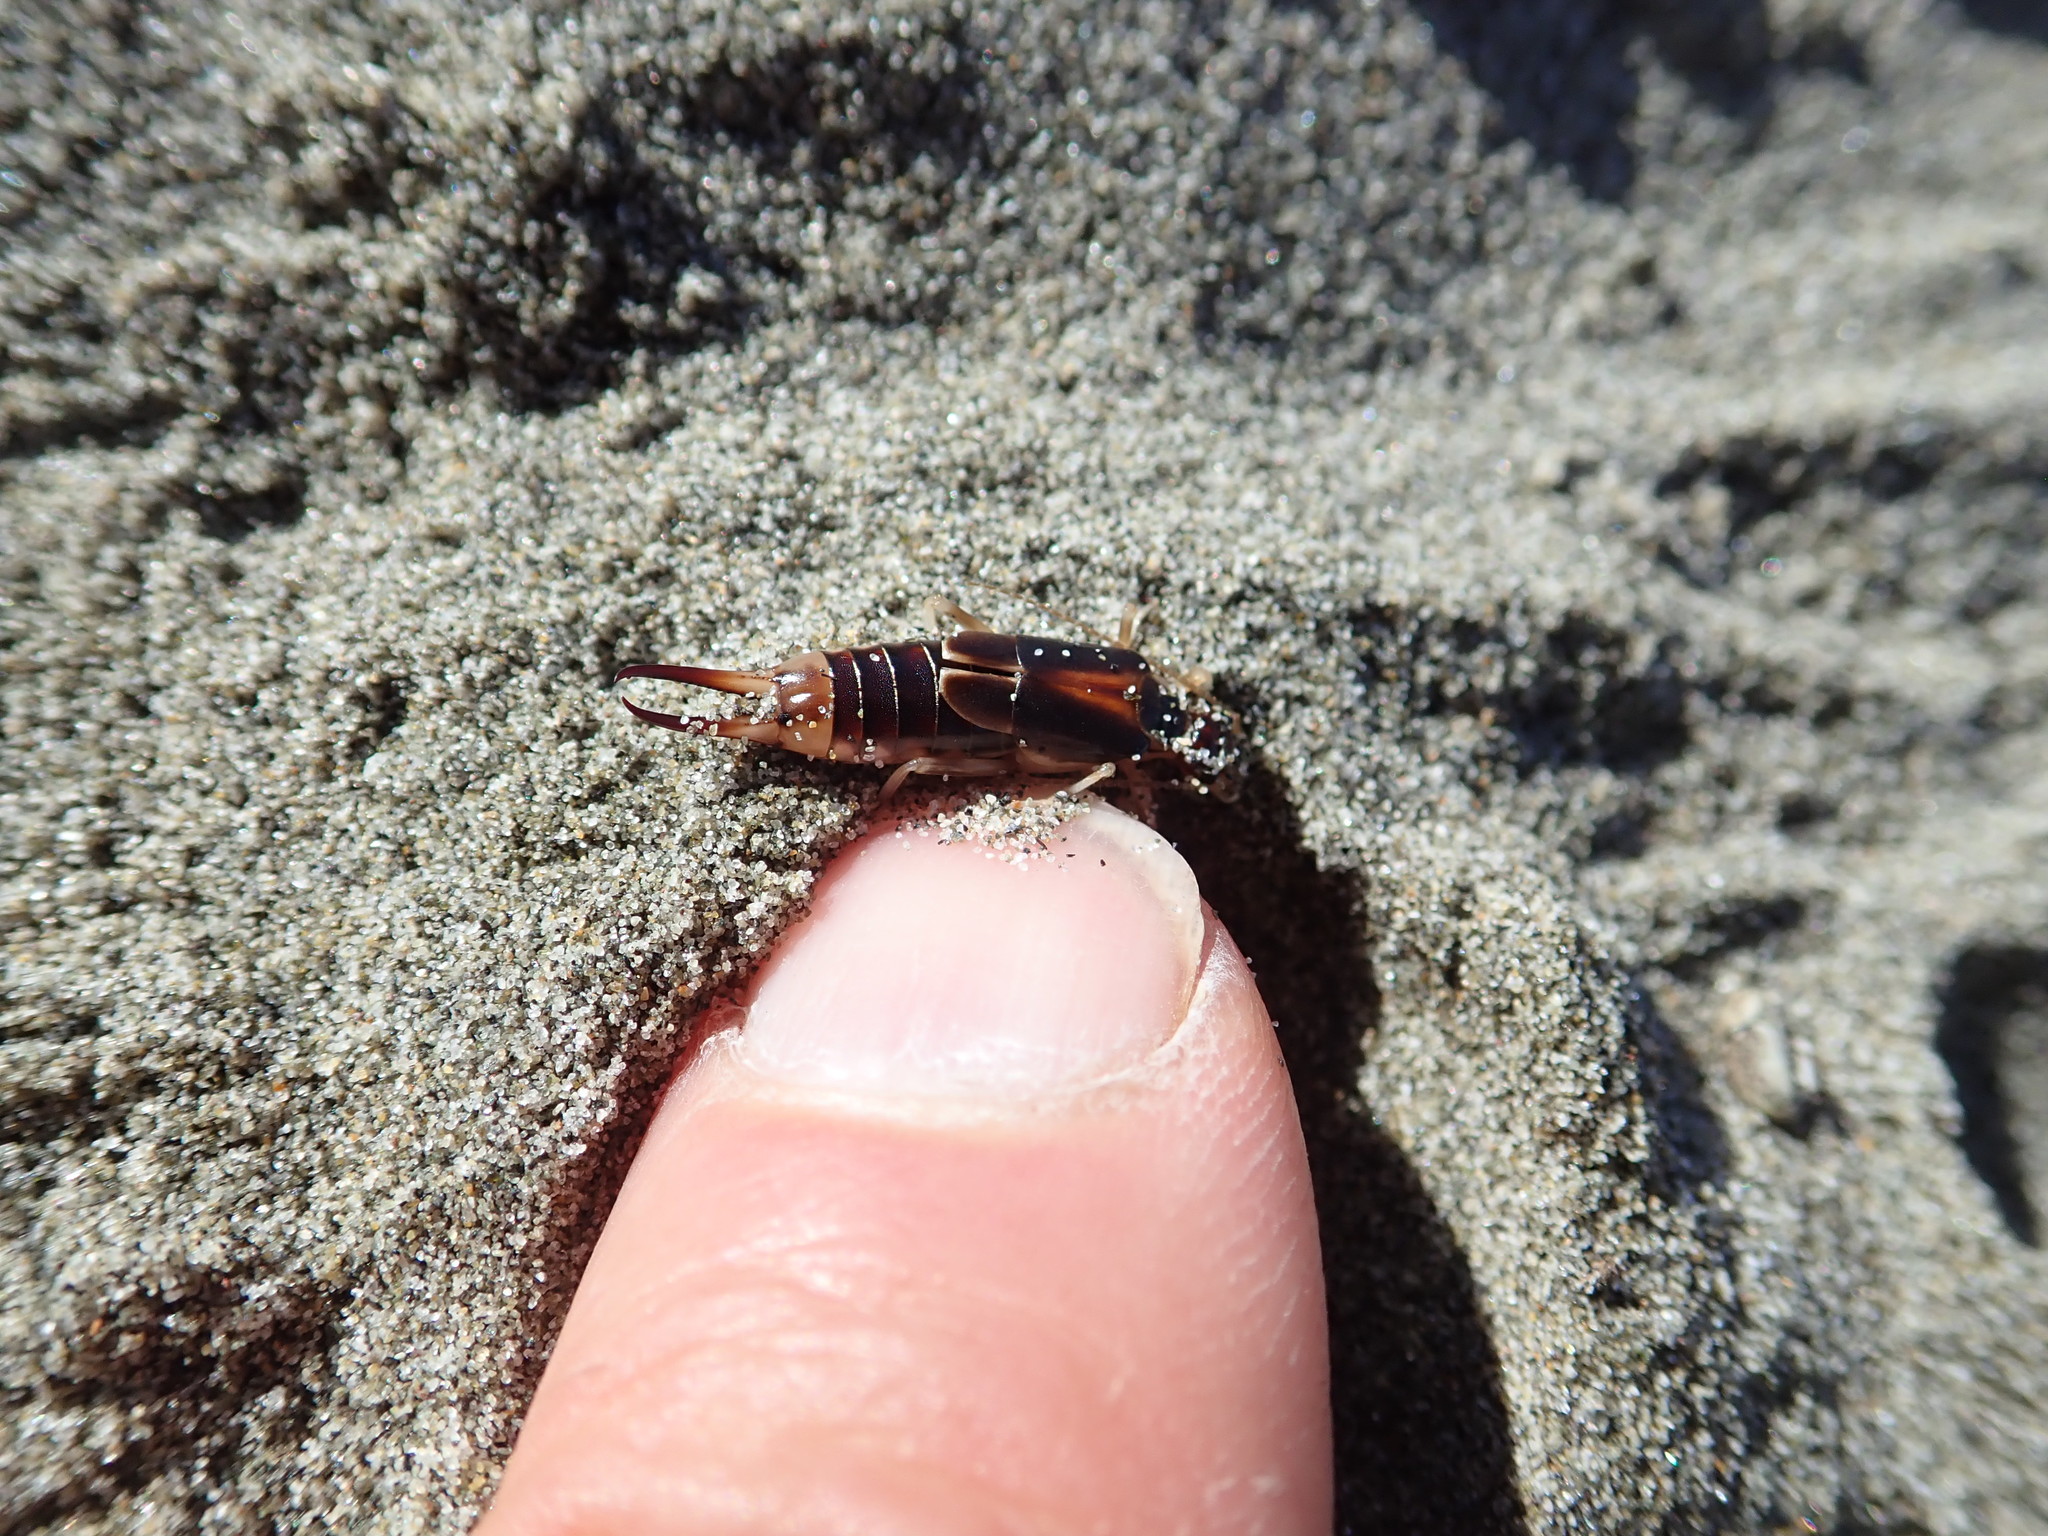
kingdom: Animalia
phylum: Arthropoda
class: Insecta
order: Dermaptera
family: Labiduridae
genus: Labidura
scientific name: Labidura riparia
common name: Striped earwig
